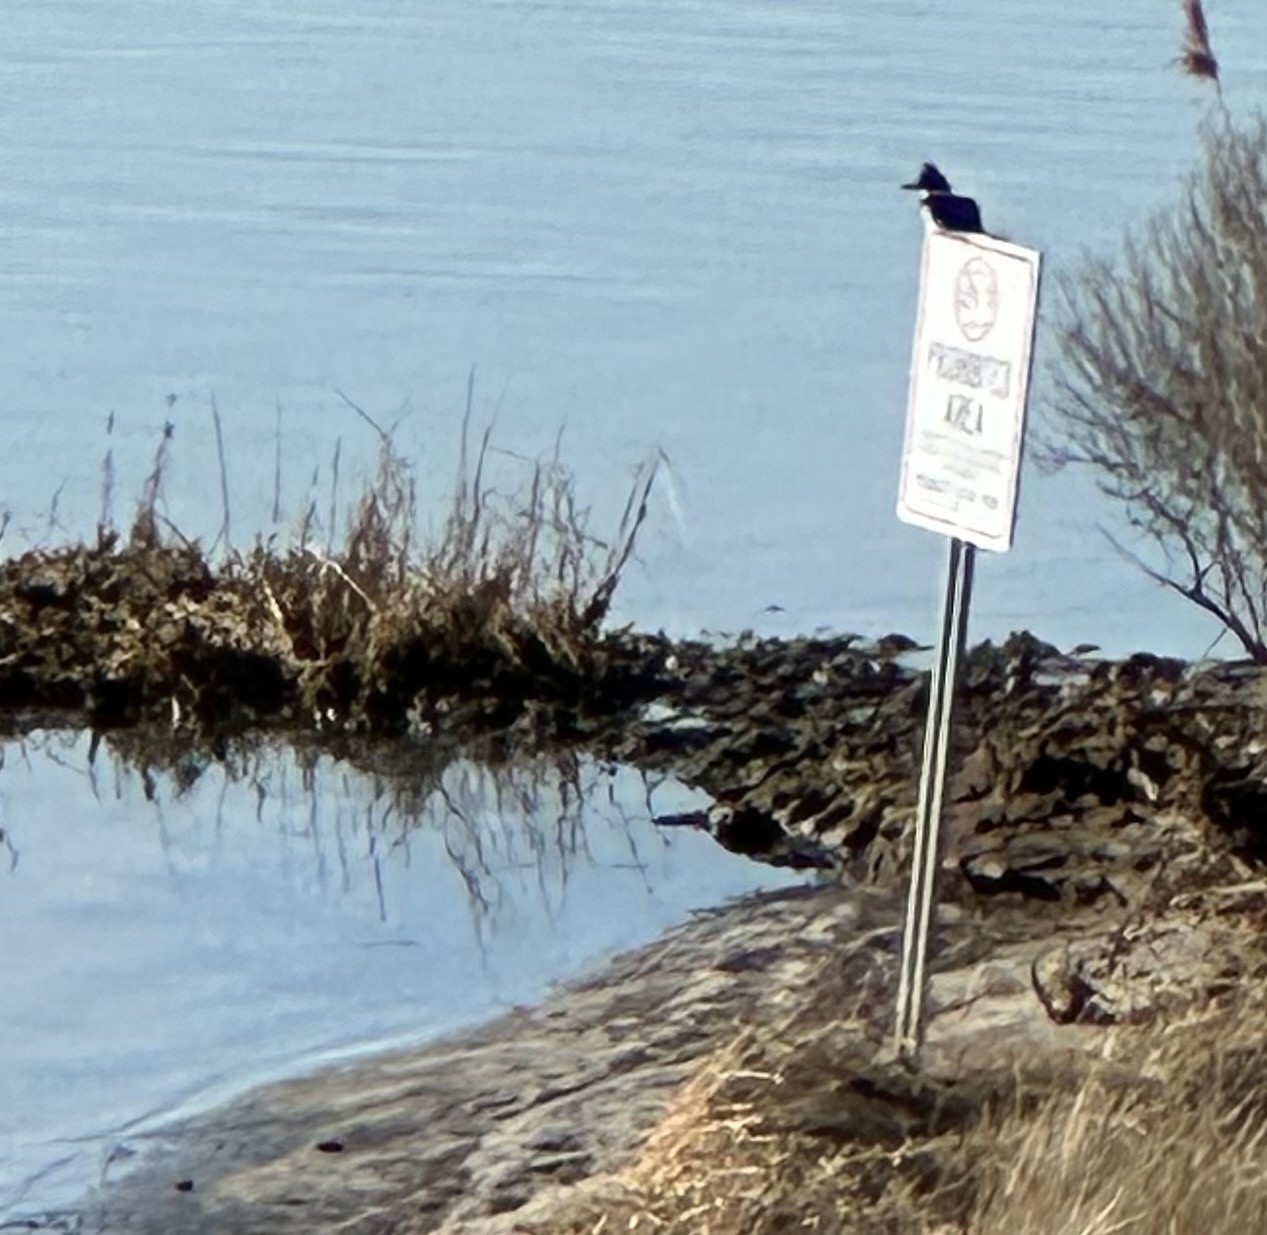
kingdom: Animalia
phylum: Chordata
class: Aves
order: Coraciiformes
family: Alcedinidae
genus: Megaceryle
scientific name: Megaceryle alcyon
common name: Belted kingfisher
